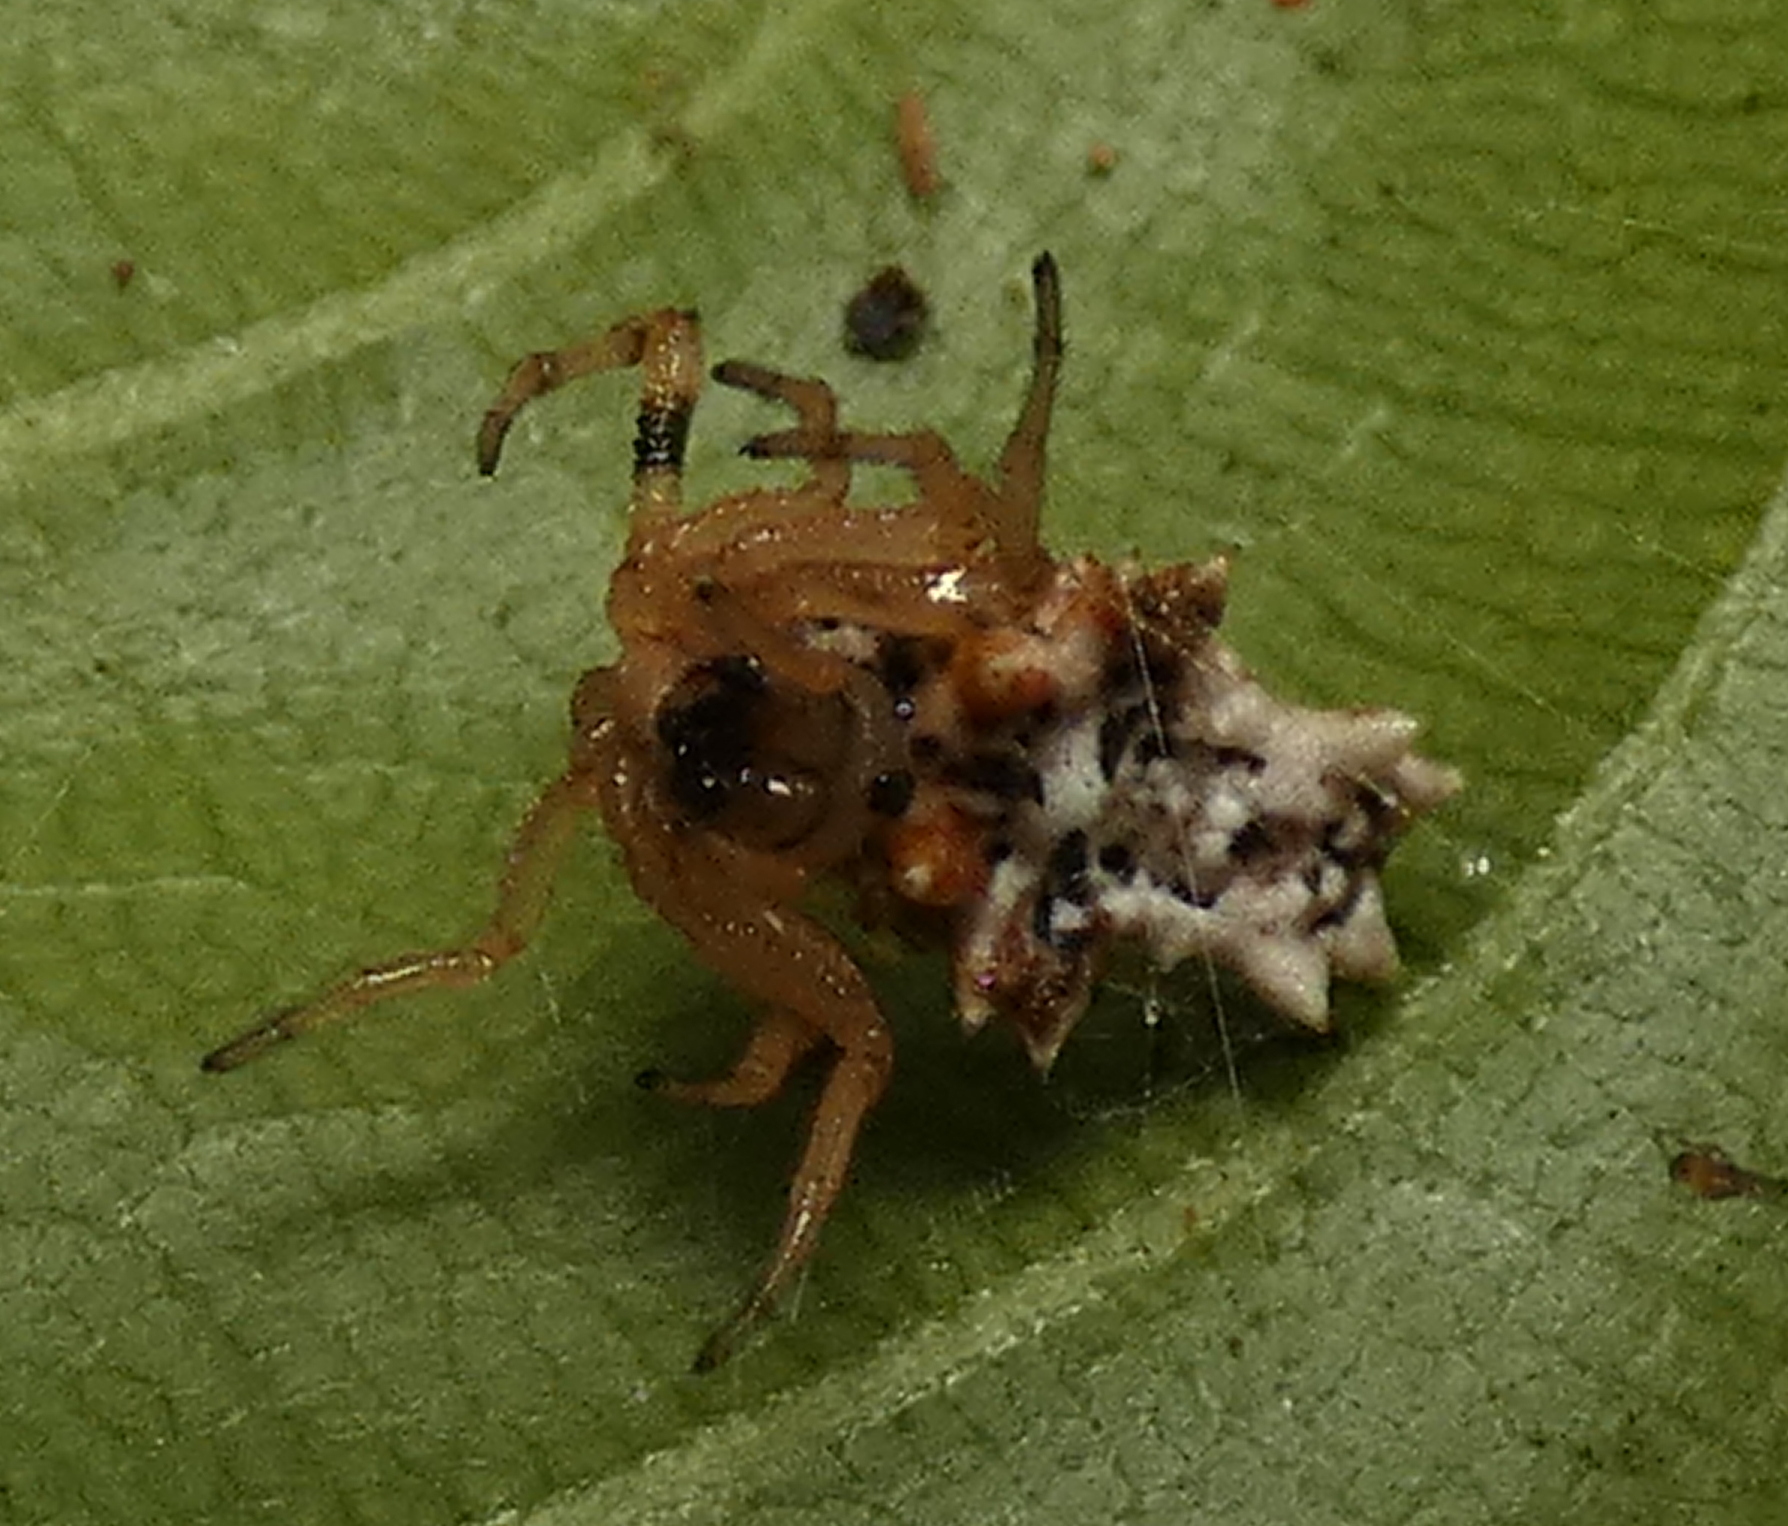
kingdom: Animalia
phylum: Arthropoda
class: Arachnida
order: Araneae
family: Araneidae
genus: Micrathena
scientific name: Micrathena horrida
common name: Orb weavers
